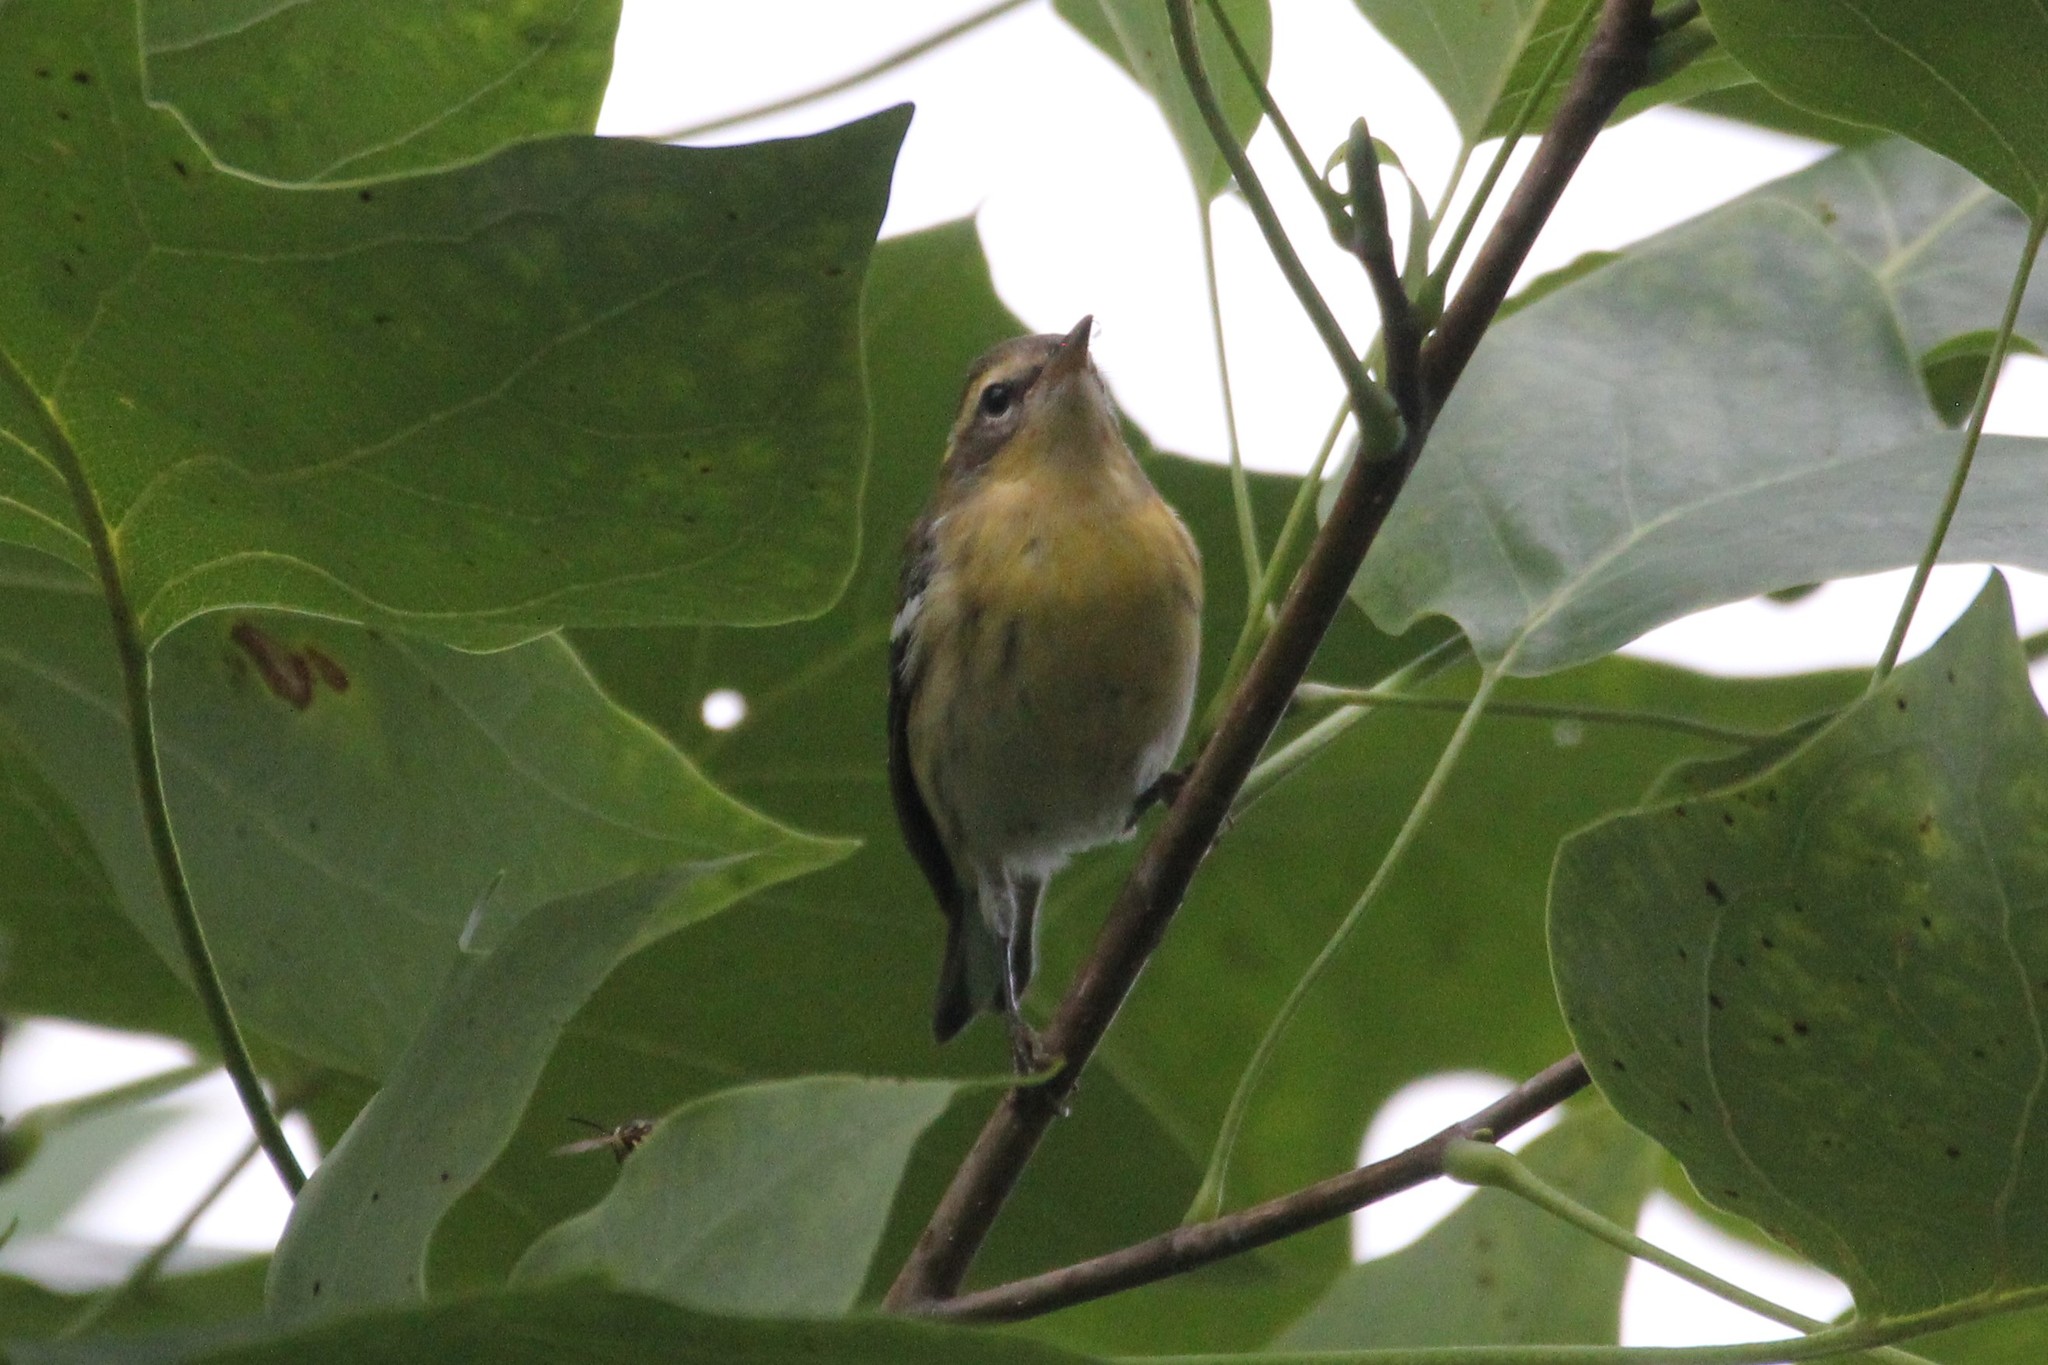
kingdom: Animalia
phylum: Chordata
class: Aves
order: Passeriformes
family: Parulidae
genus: Setophaga
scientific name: Setophaga fusca
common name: Blackburnian warbler
